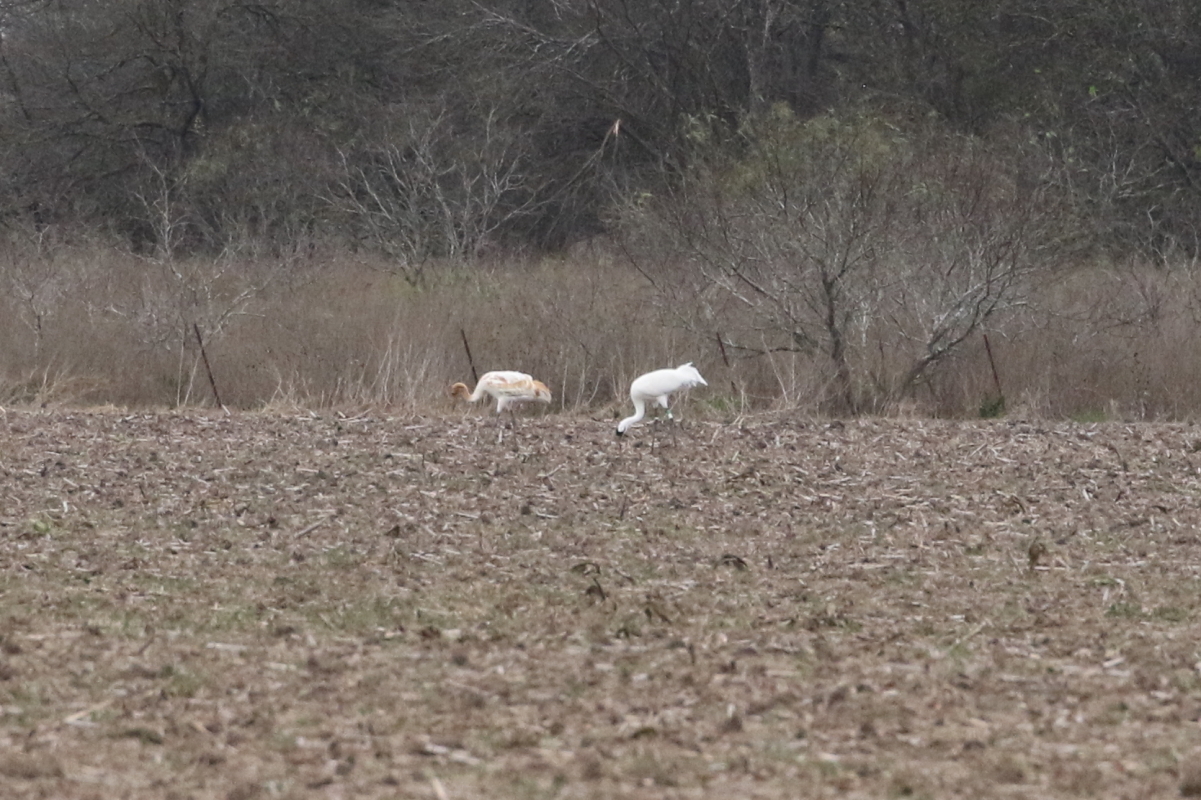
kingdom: Animalia
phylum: Chordata
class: Aves
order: Gruiformes
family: Gruidae
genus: Grus
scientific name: Grus americana
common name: Whooping crane
